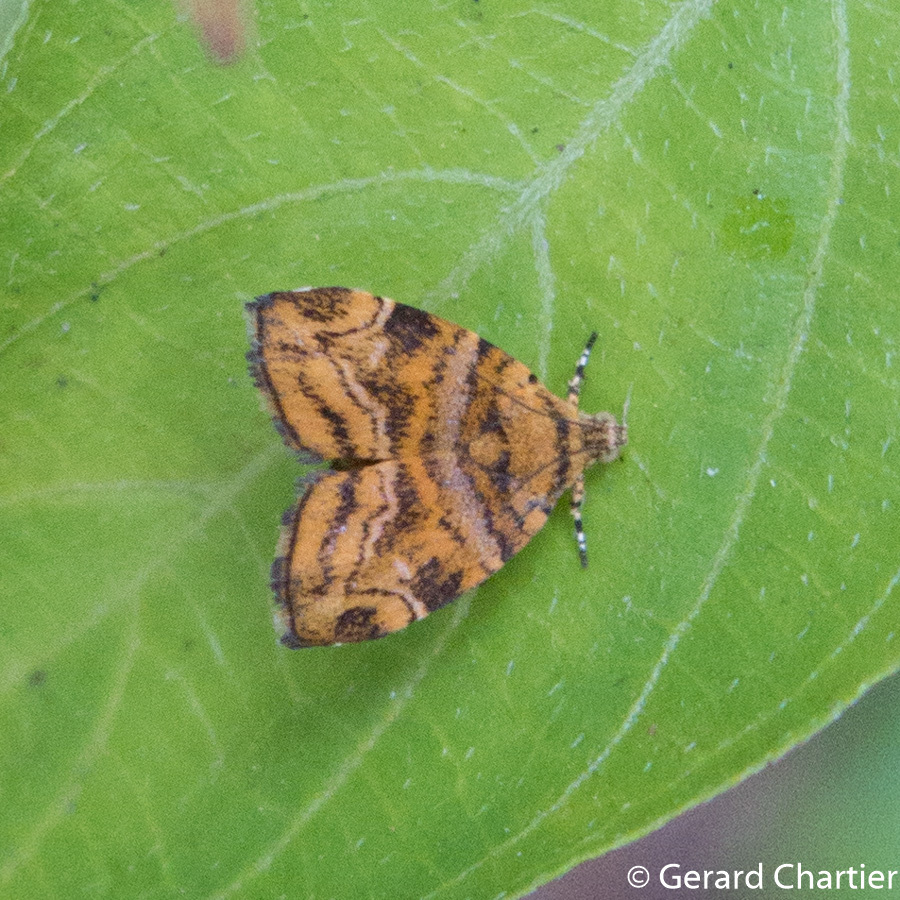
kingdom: Animalia
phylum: Arthropoda
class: Insecta
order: Lepidoptera
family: Choreutidae
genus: Choreutis
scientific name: Choreutis
